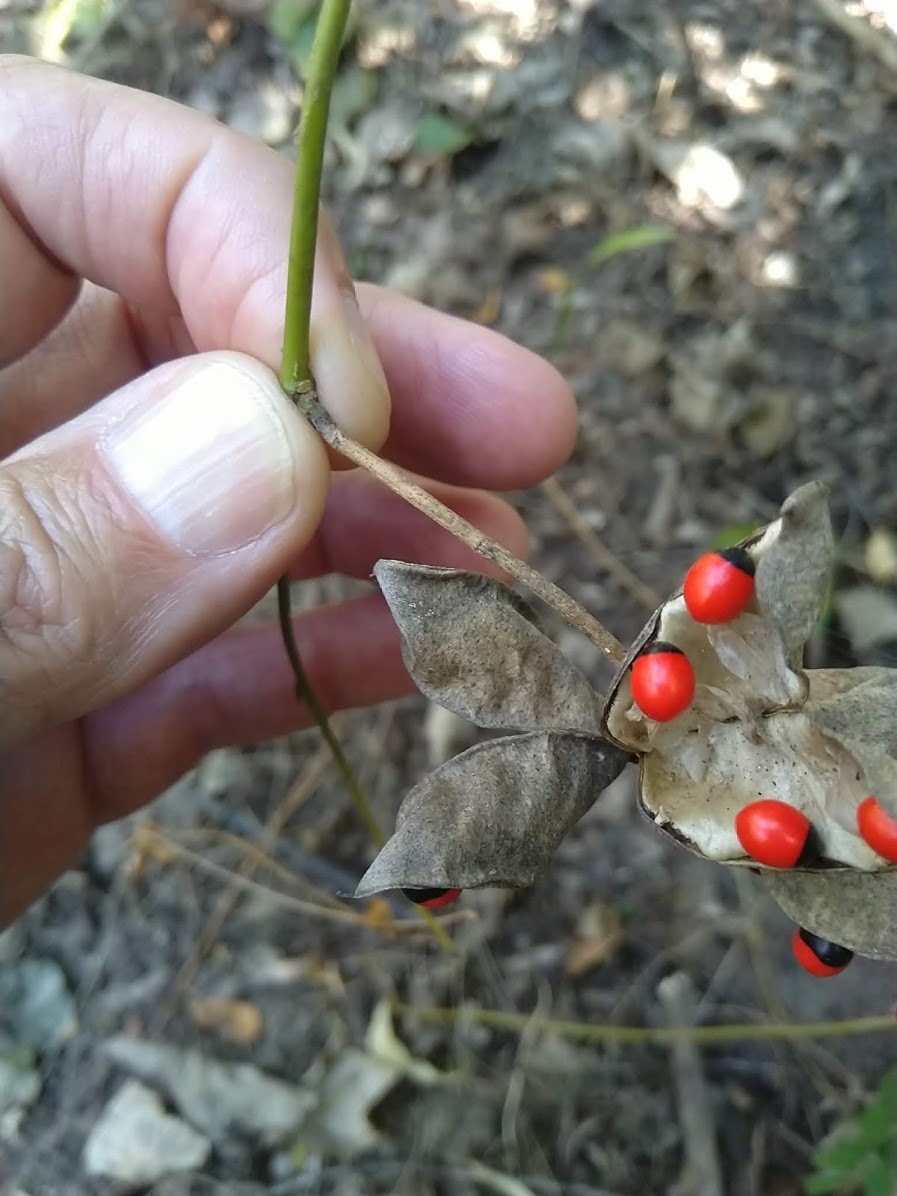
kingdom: Plantae
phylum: Tracheophyta
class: Magnoliopsida
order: Fabales
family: Fabaceae
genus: Abrus
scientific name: Abrus precatorius
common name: Rosarypea
